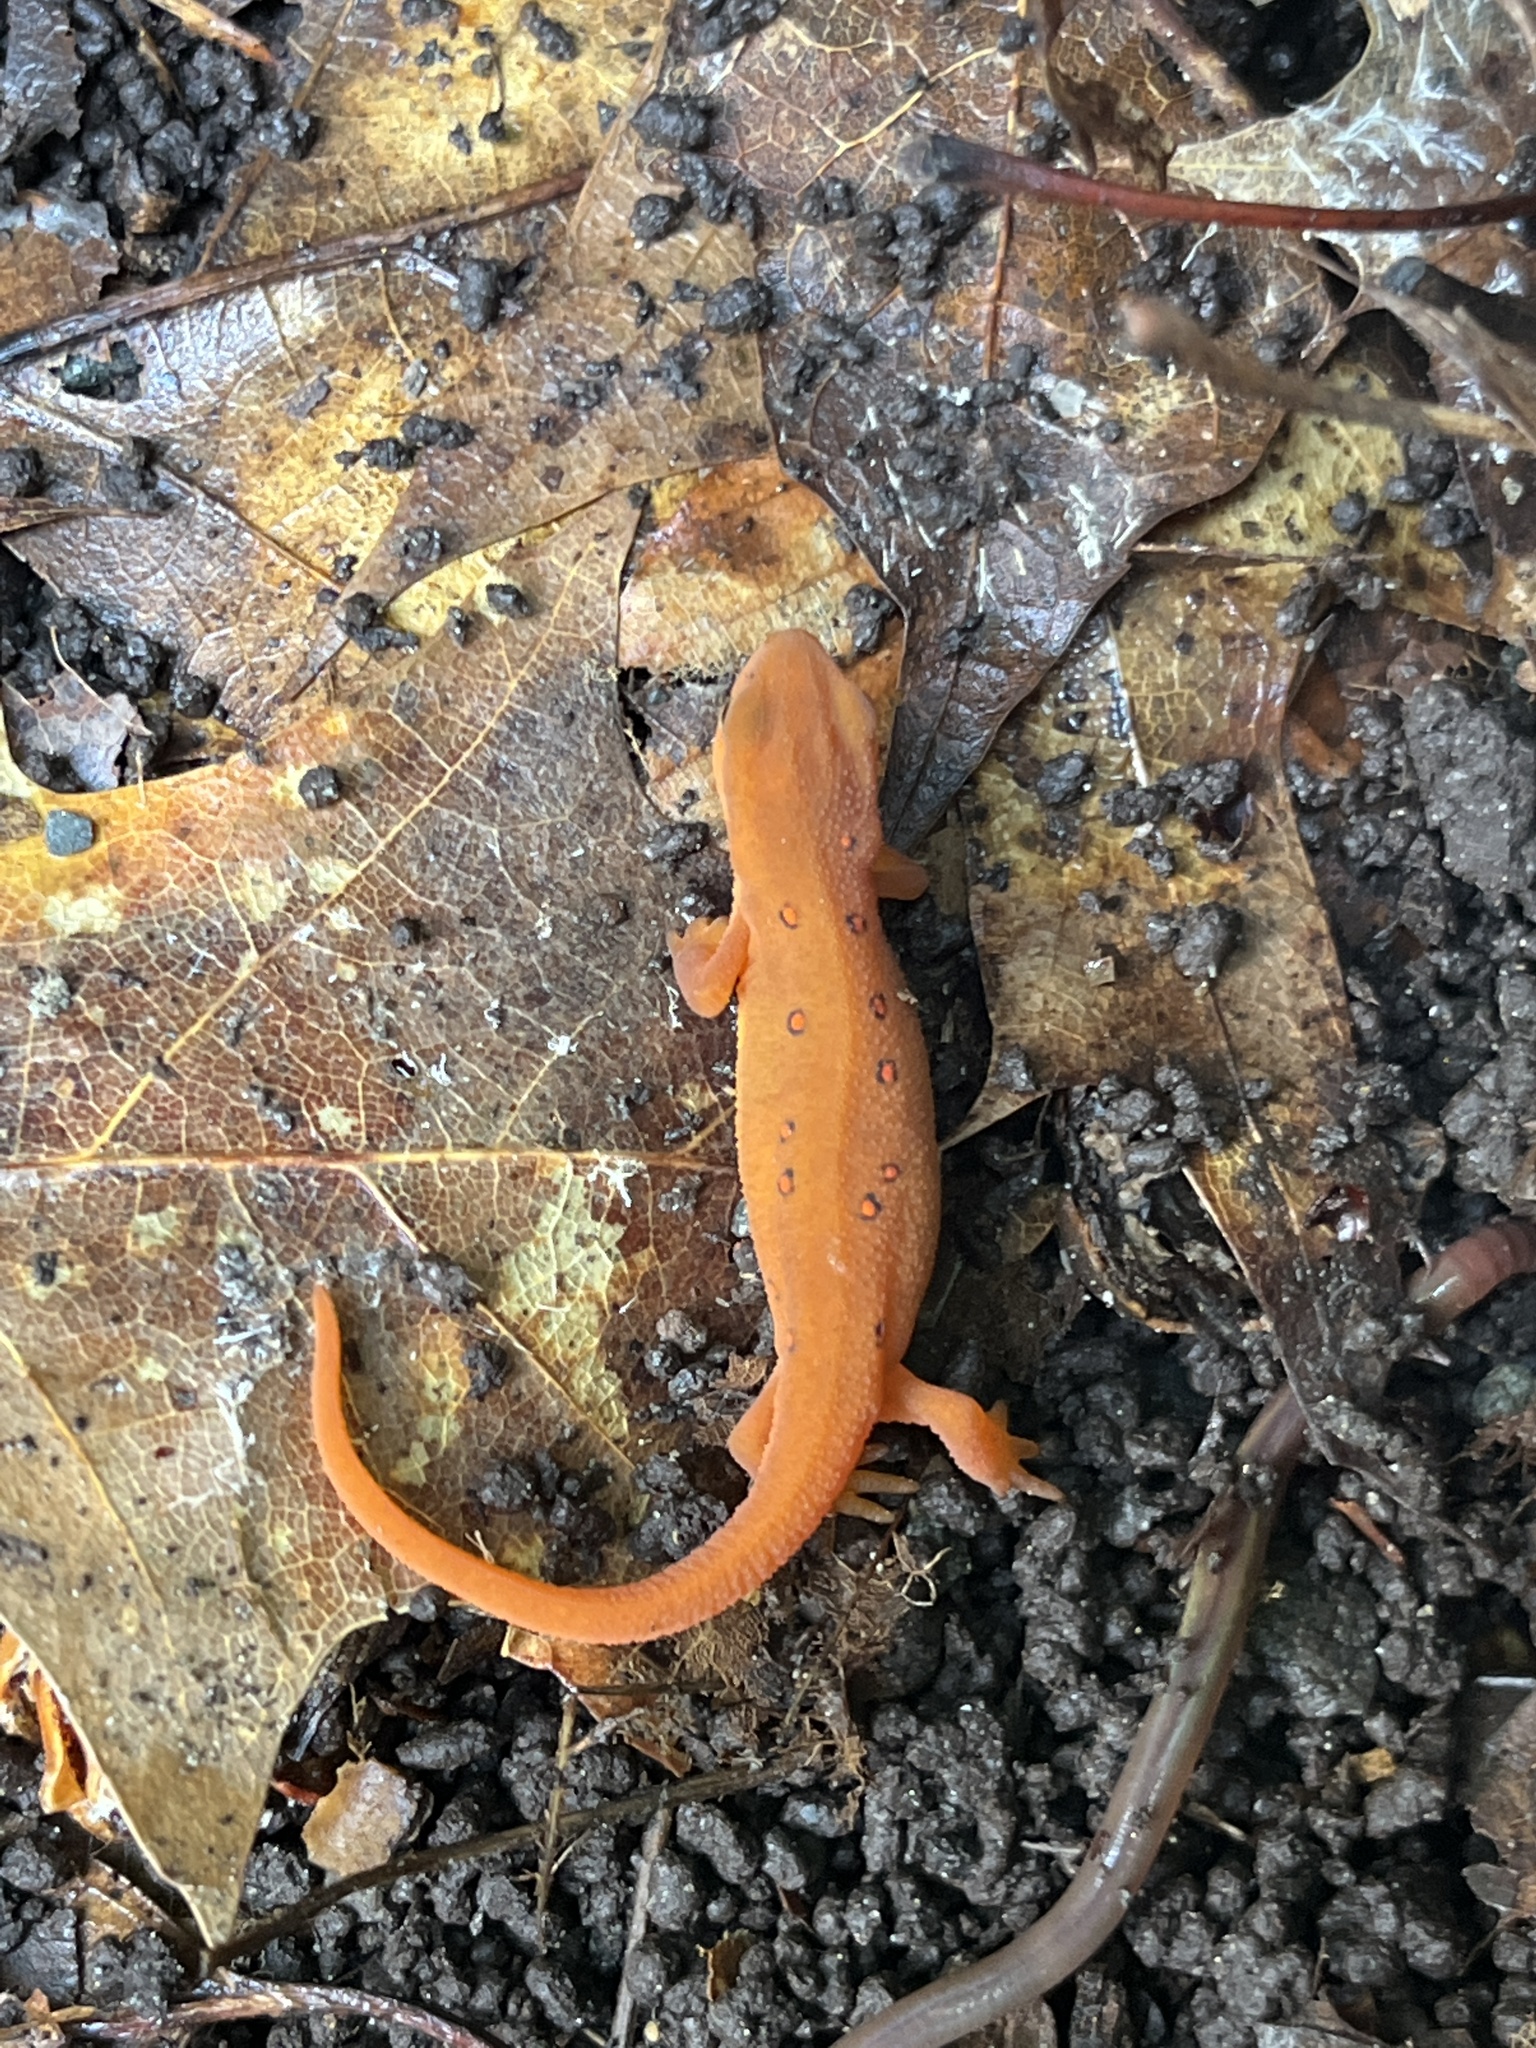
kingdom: Animalia
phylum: Chordata
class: Amphibia
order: Caudata
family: Salamandridae
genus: Notophthalmus
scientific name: Notophthalmus viridescens
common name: Eastern newt
